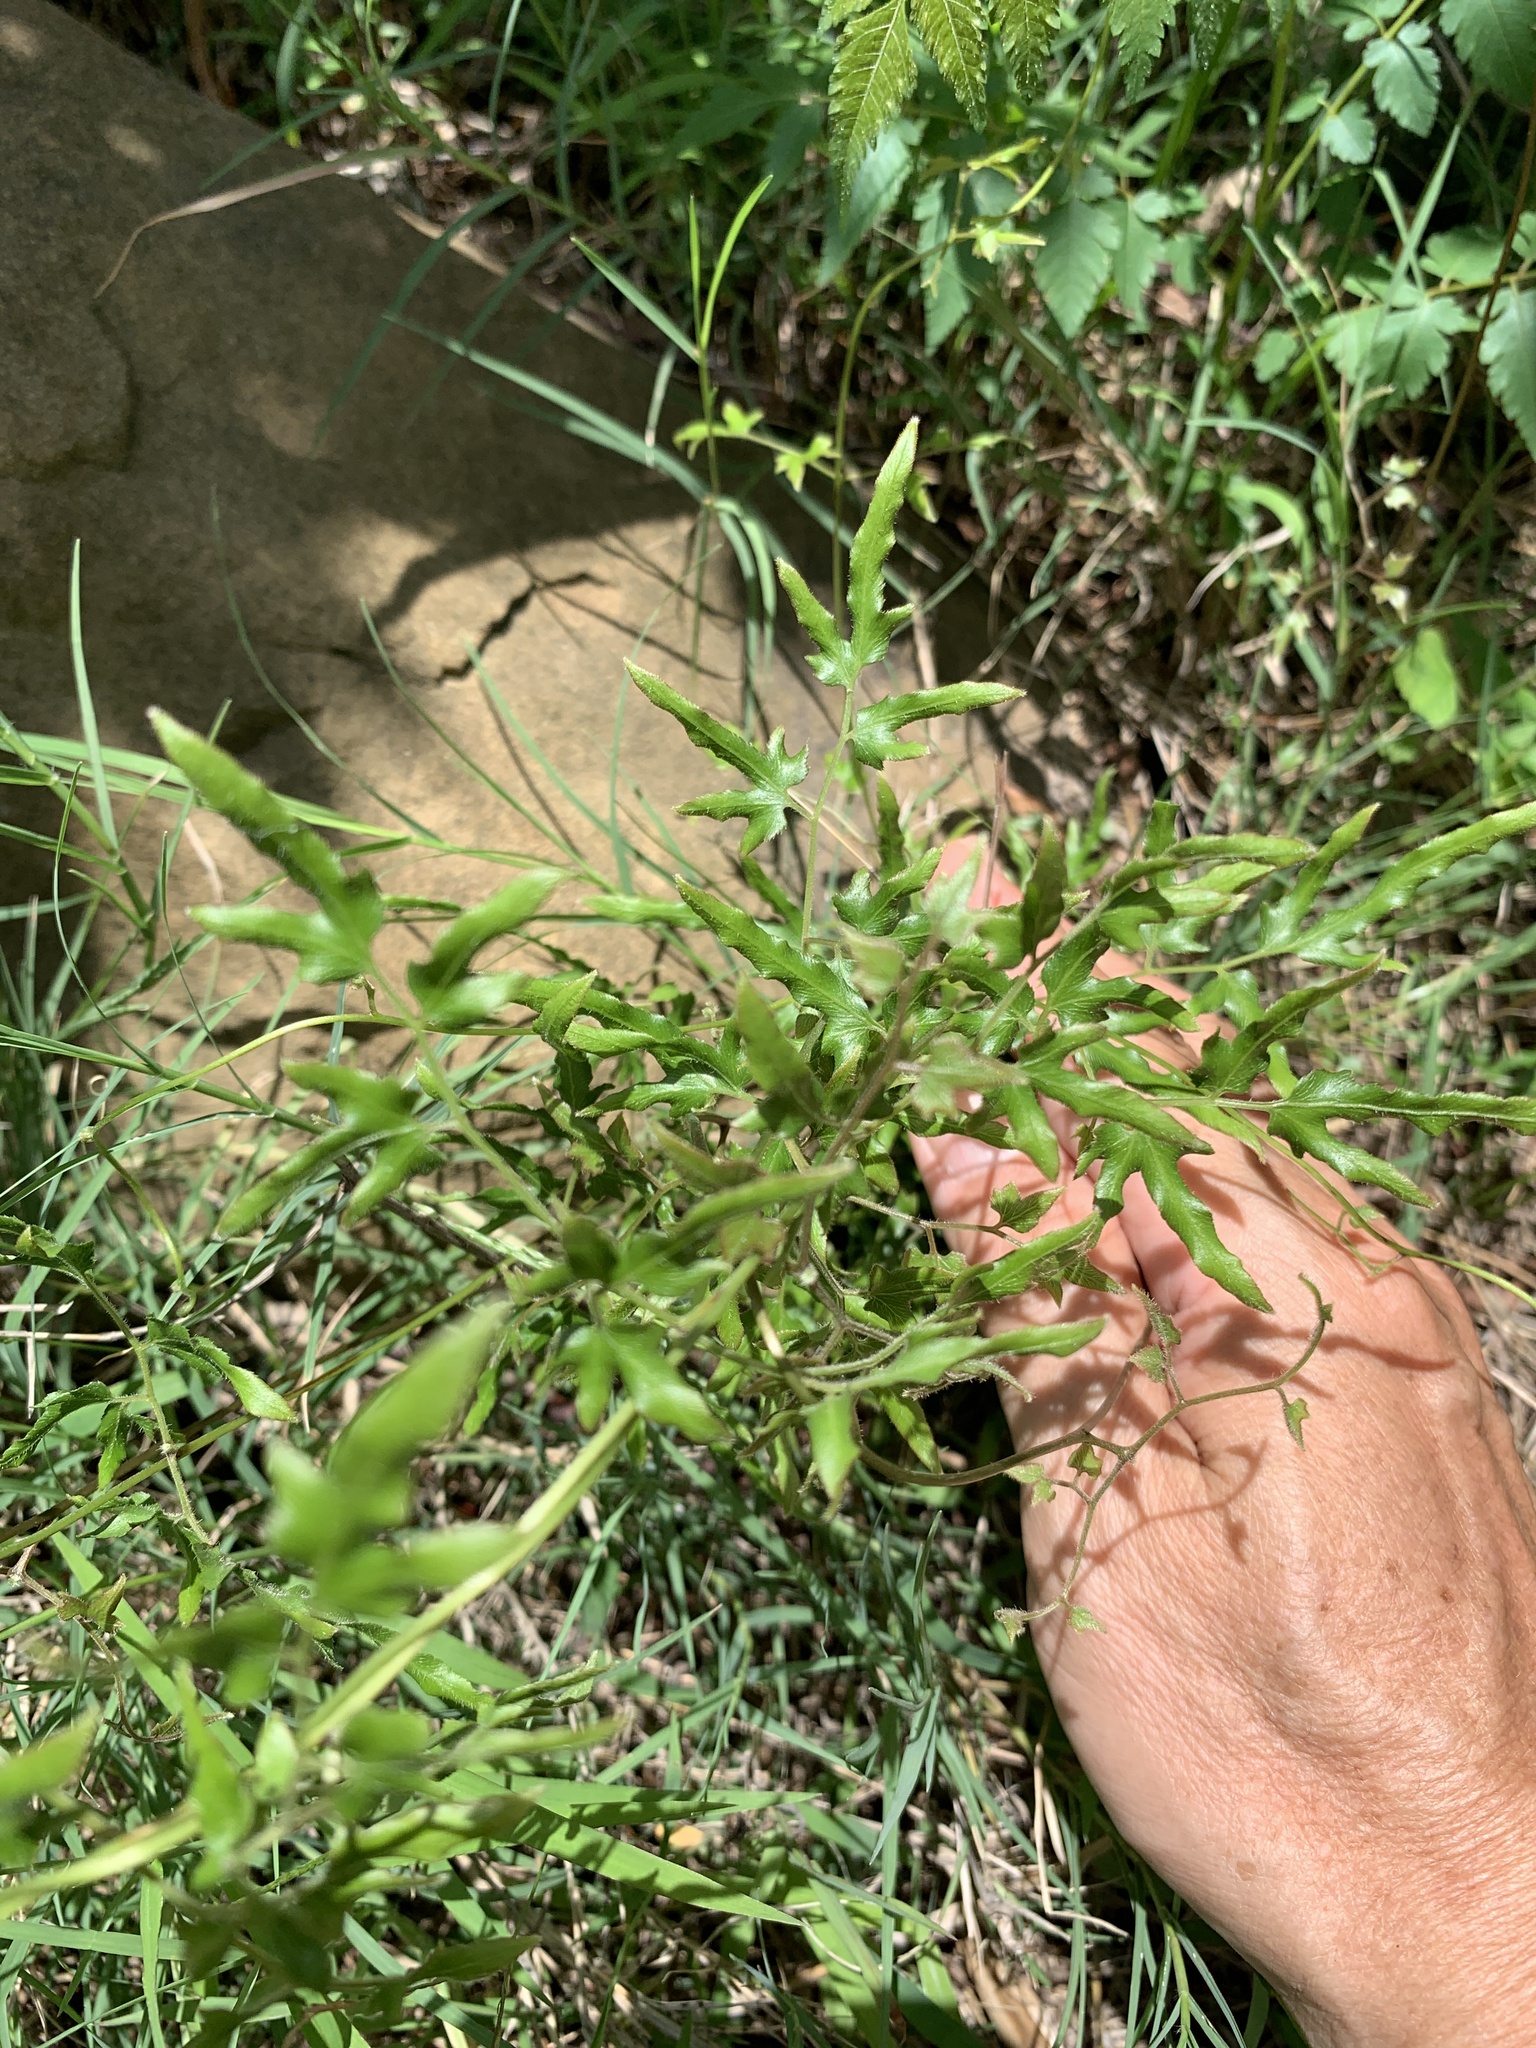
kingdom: Plantae
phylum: Tracheophyta
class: Polypodiopsida
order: Schizaeales
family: Lygodiaceae
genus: Lygodium
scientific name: Lygodium japonicum
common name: Japanese climbing fern
